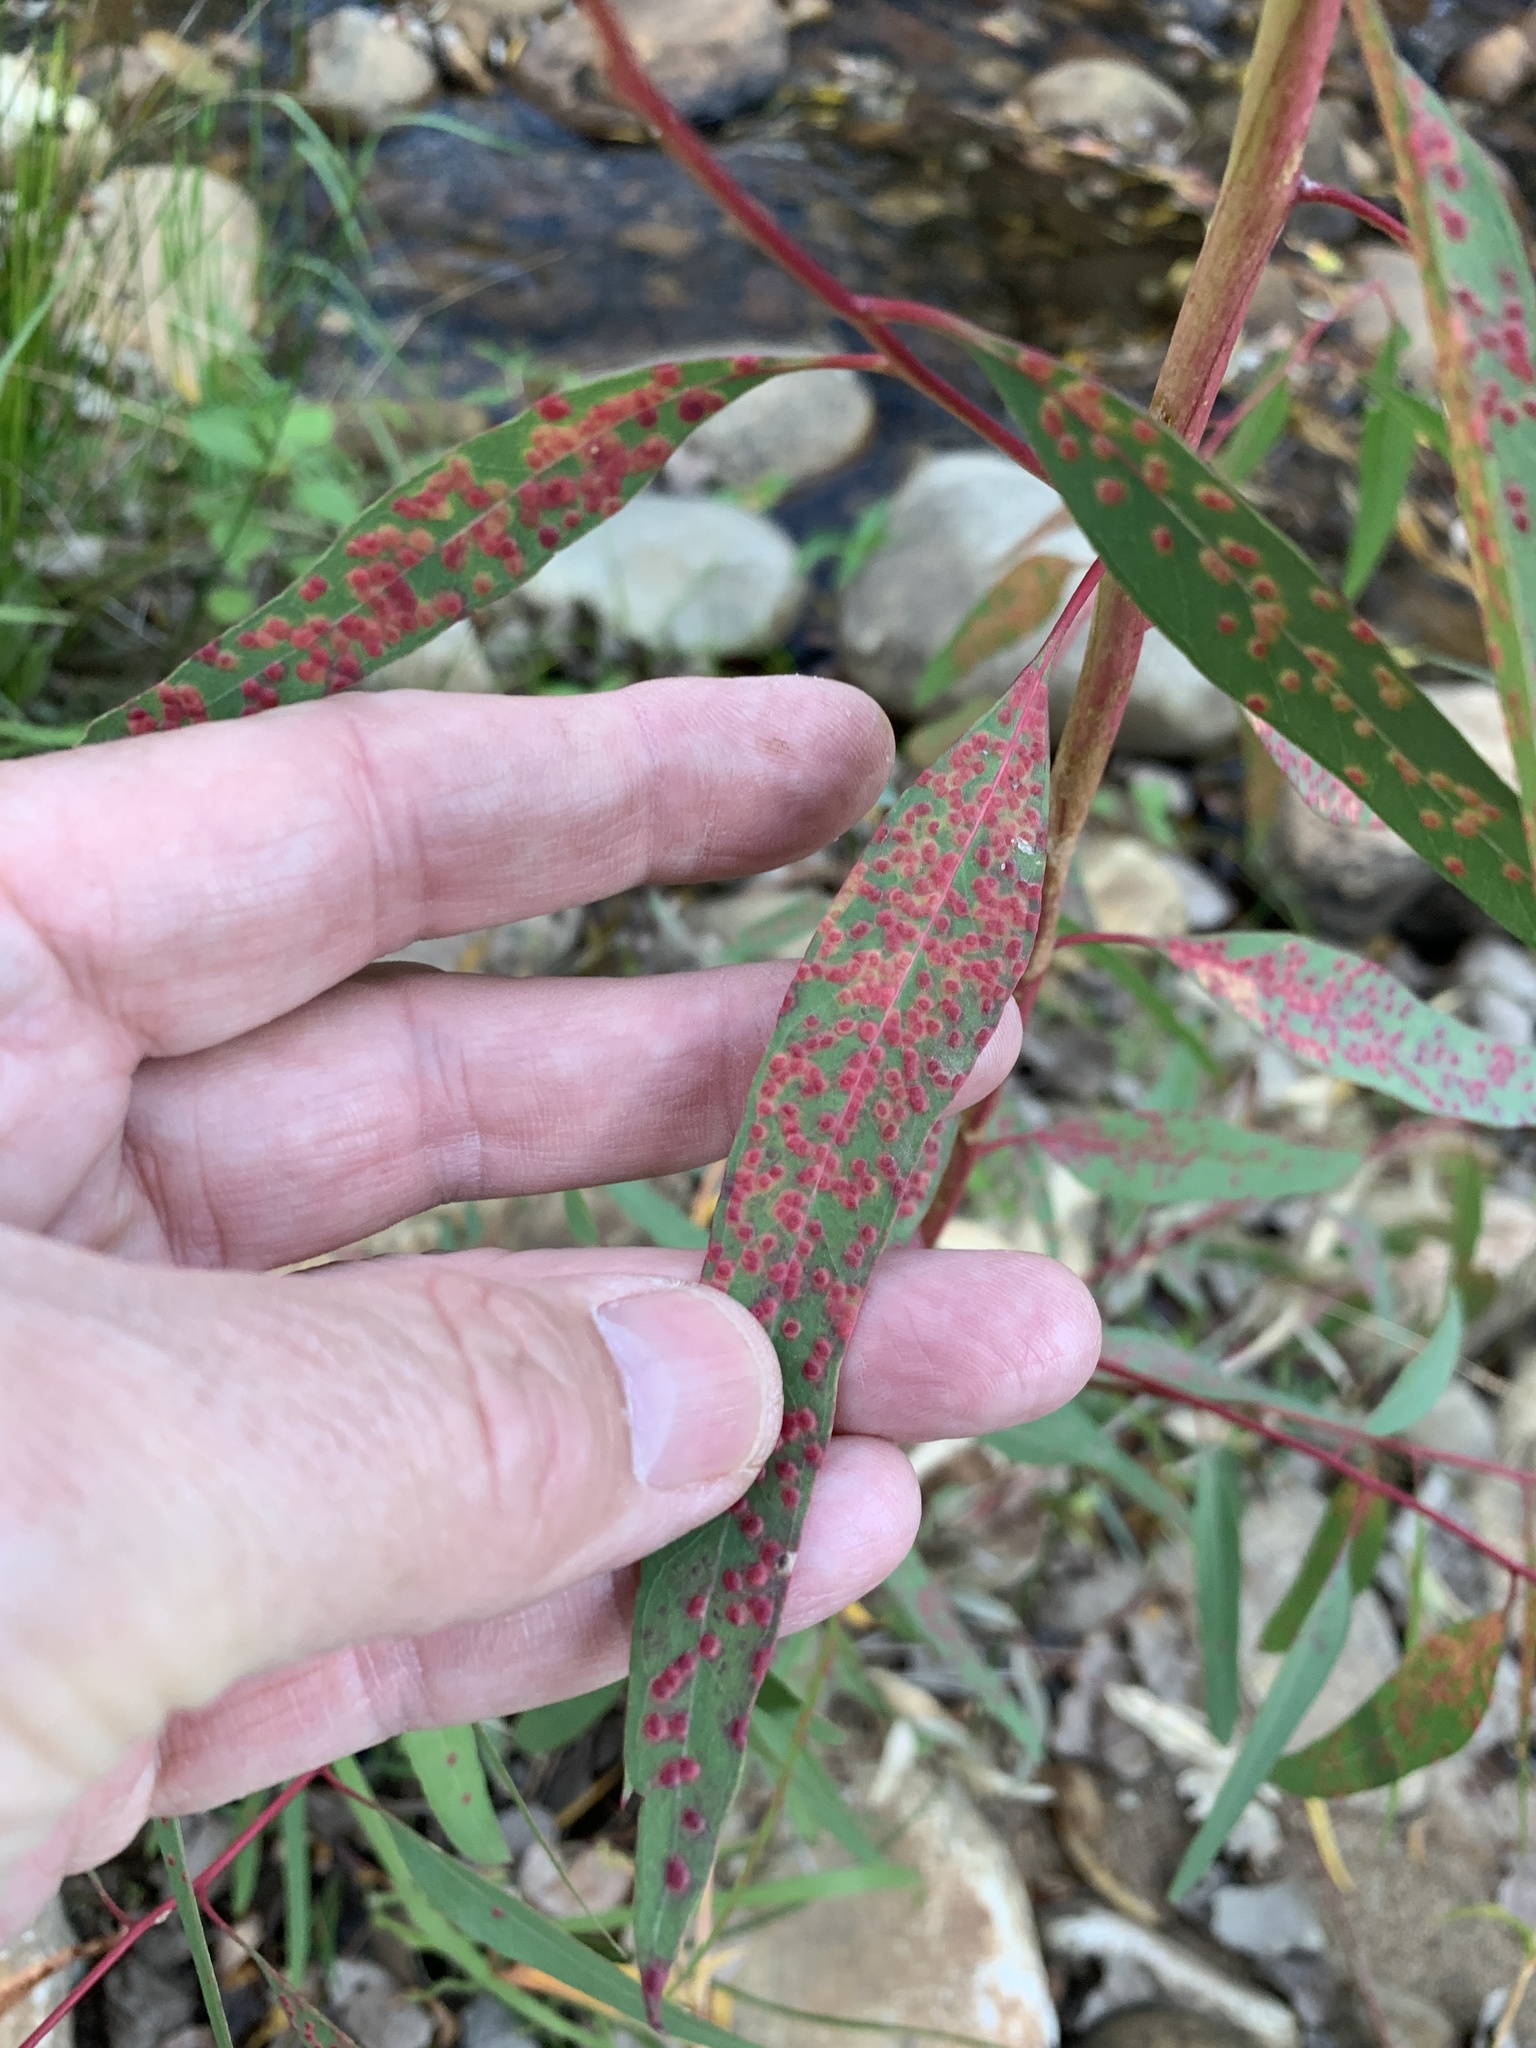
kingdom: Plantae
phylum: Tracheophyta
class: Magnoliopsida
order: Myrtales
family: Myrtaceae
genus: Eucalyptus
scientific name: Eucalyptus camaldulensis
